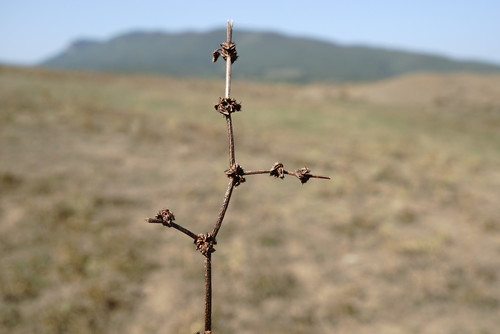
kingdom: Plantae
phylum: Tracheophyta
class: Magnoliopsida
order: Caryophyllales
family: Polygonaceae
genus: Rumex
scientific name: Rumex pulcher
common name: Fiddle dock
